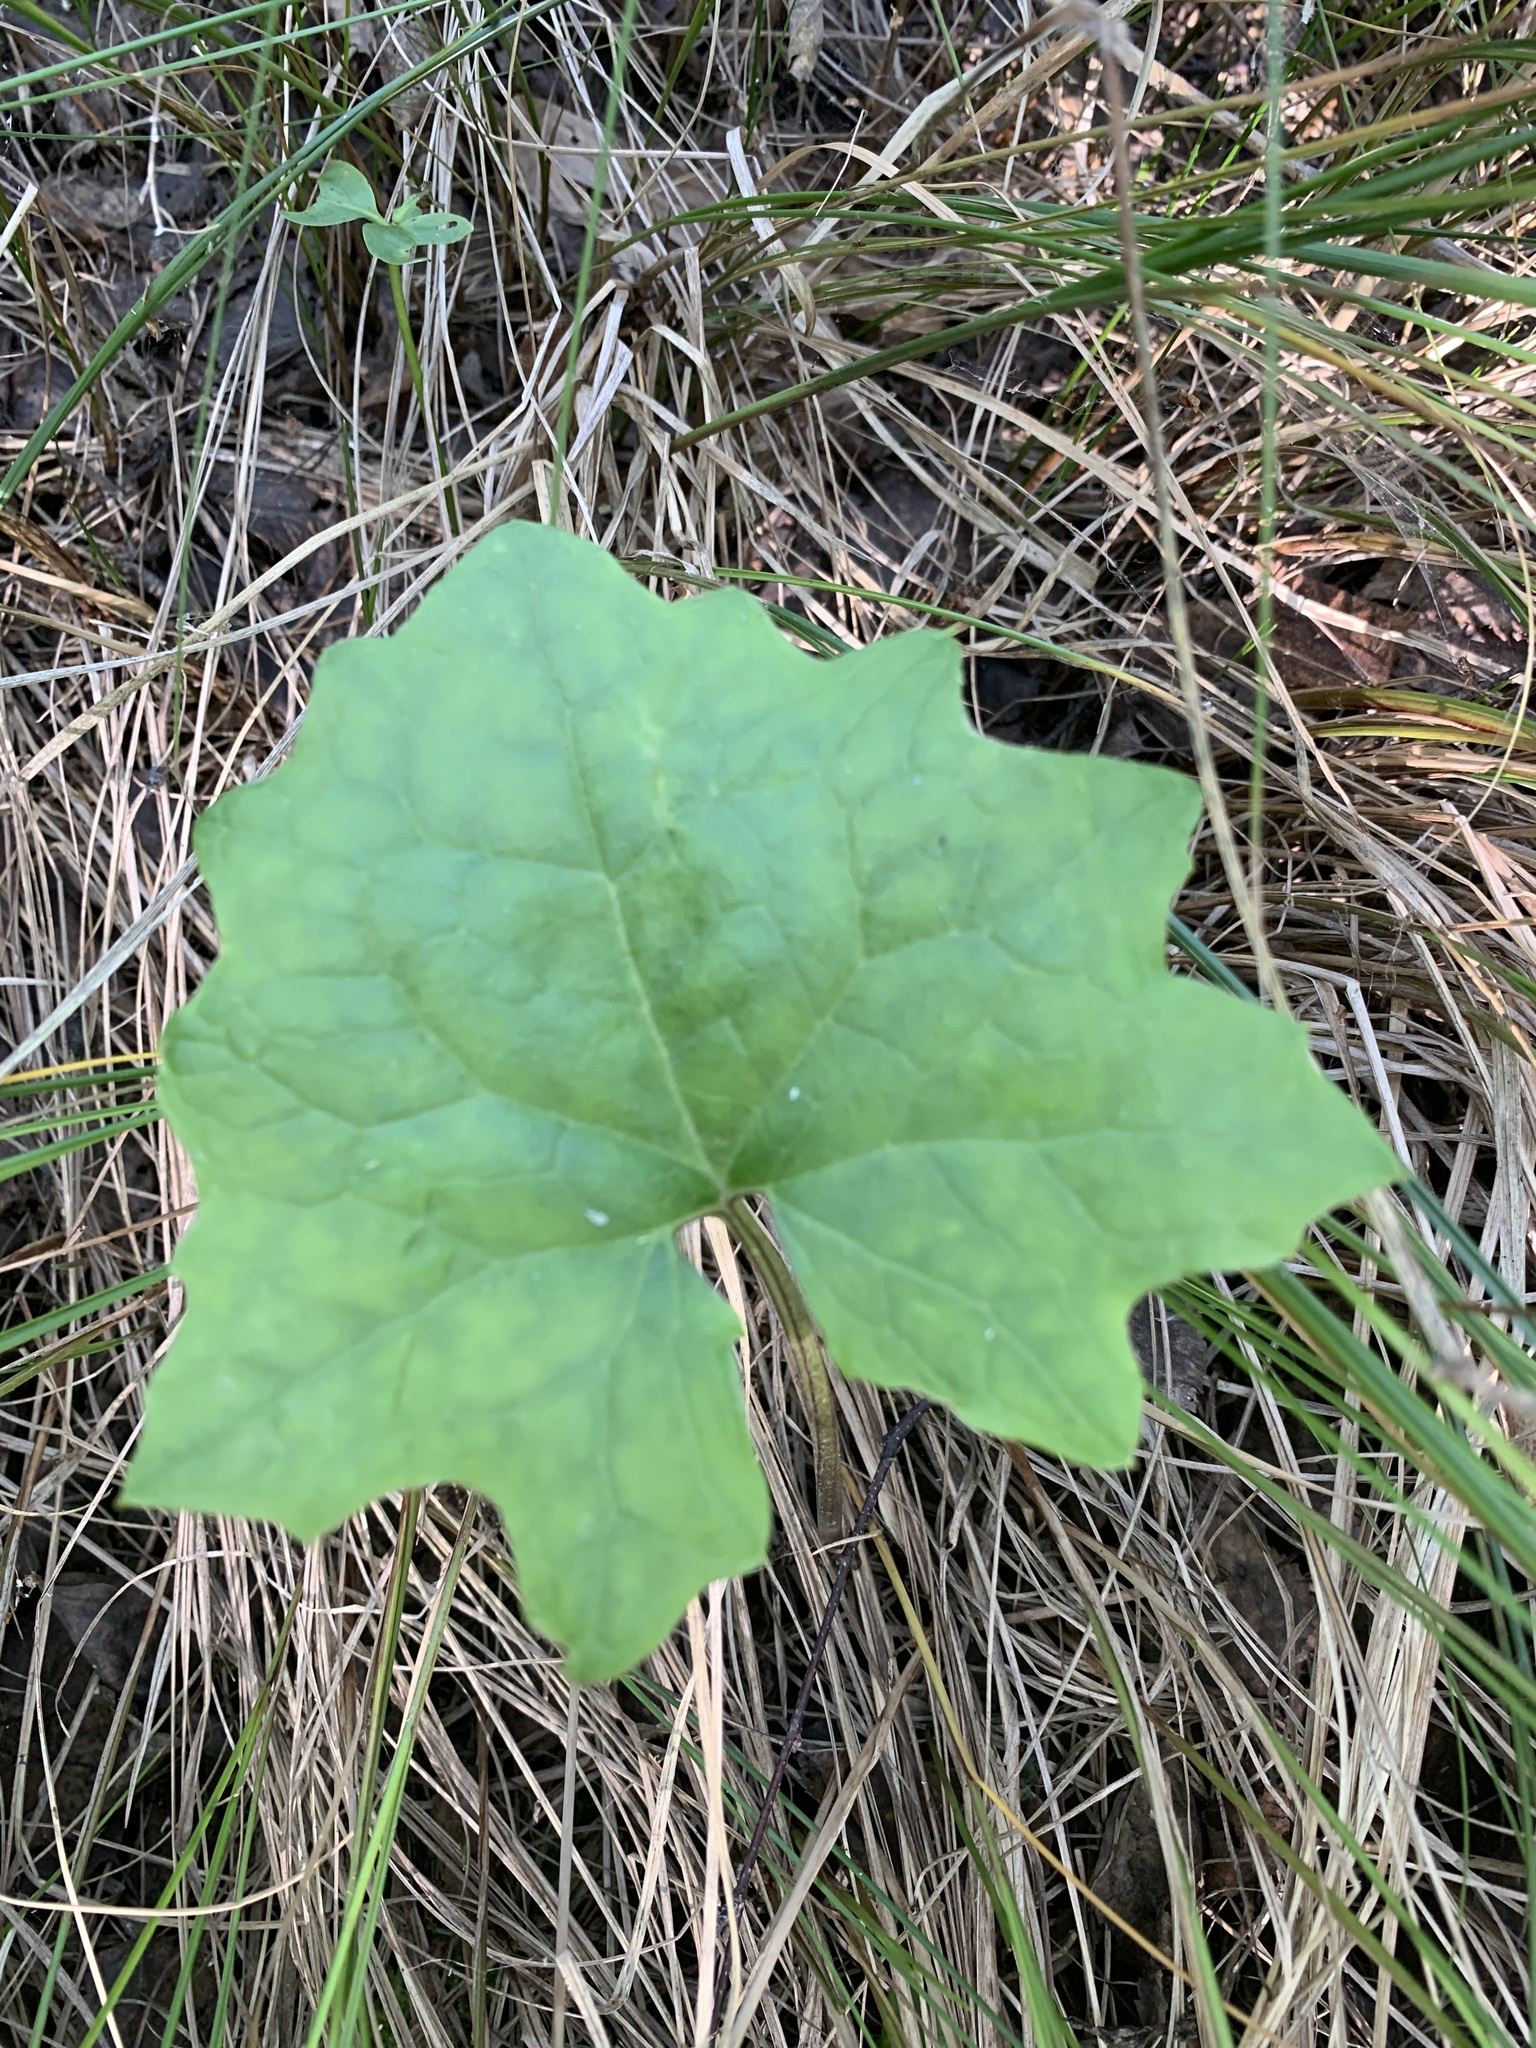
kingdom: Plantae
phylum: Tracheophyta
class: Magnoliopsida
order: Asterales
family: Asteraceae
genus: Petasites
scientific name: Petasites frigidus
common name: Arctic butterbur
